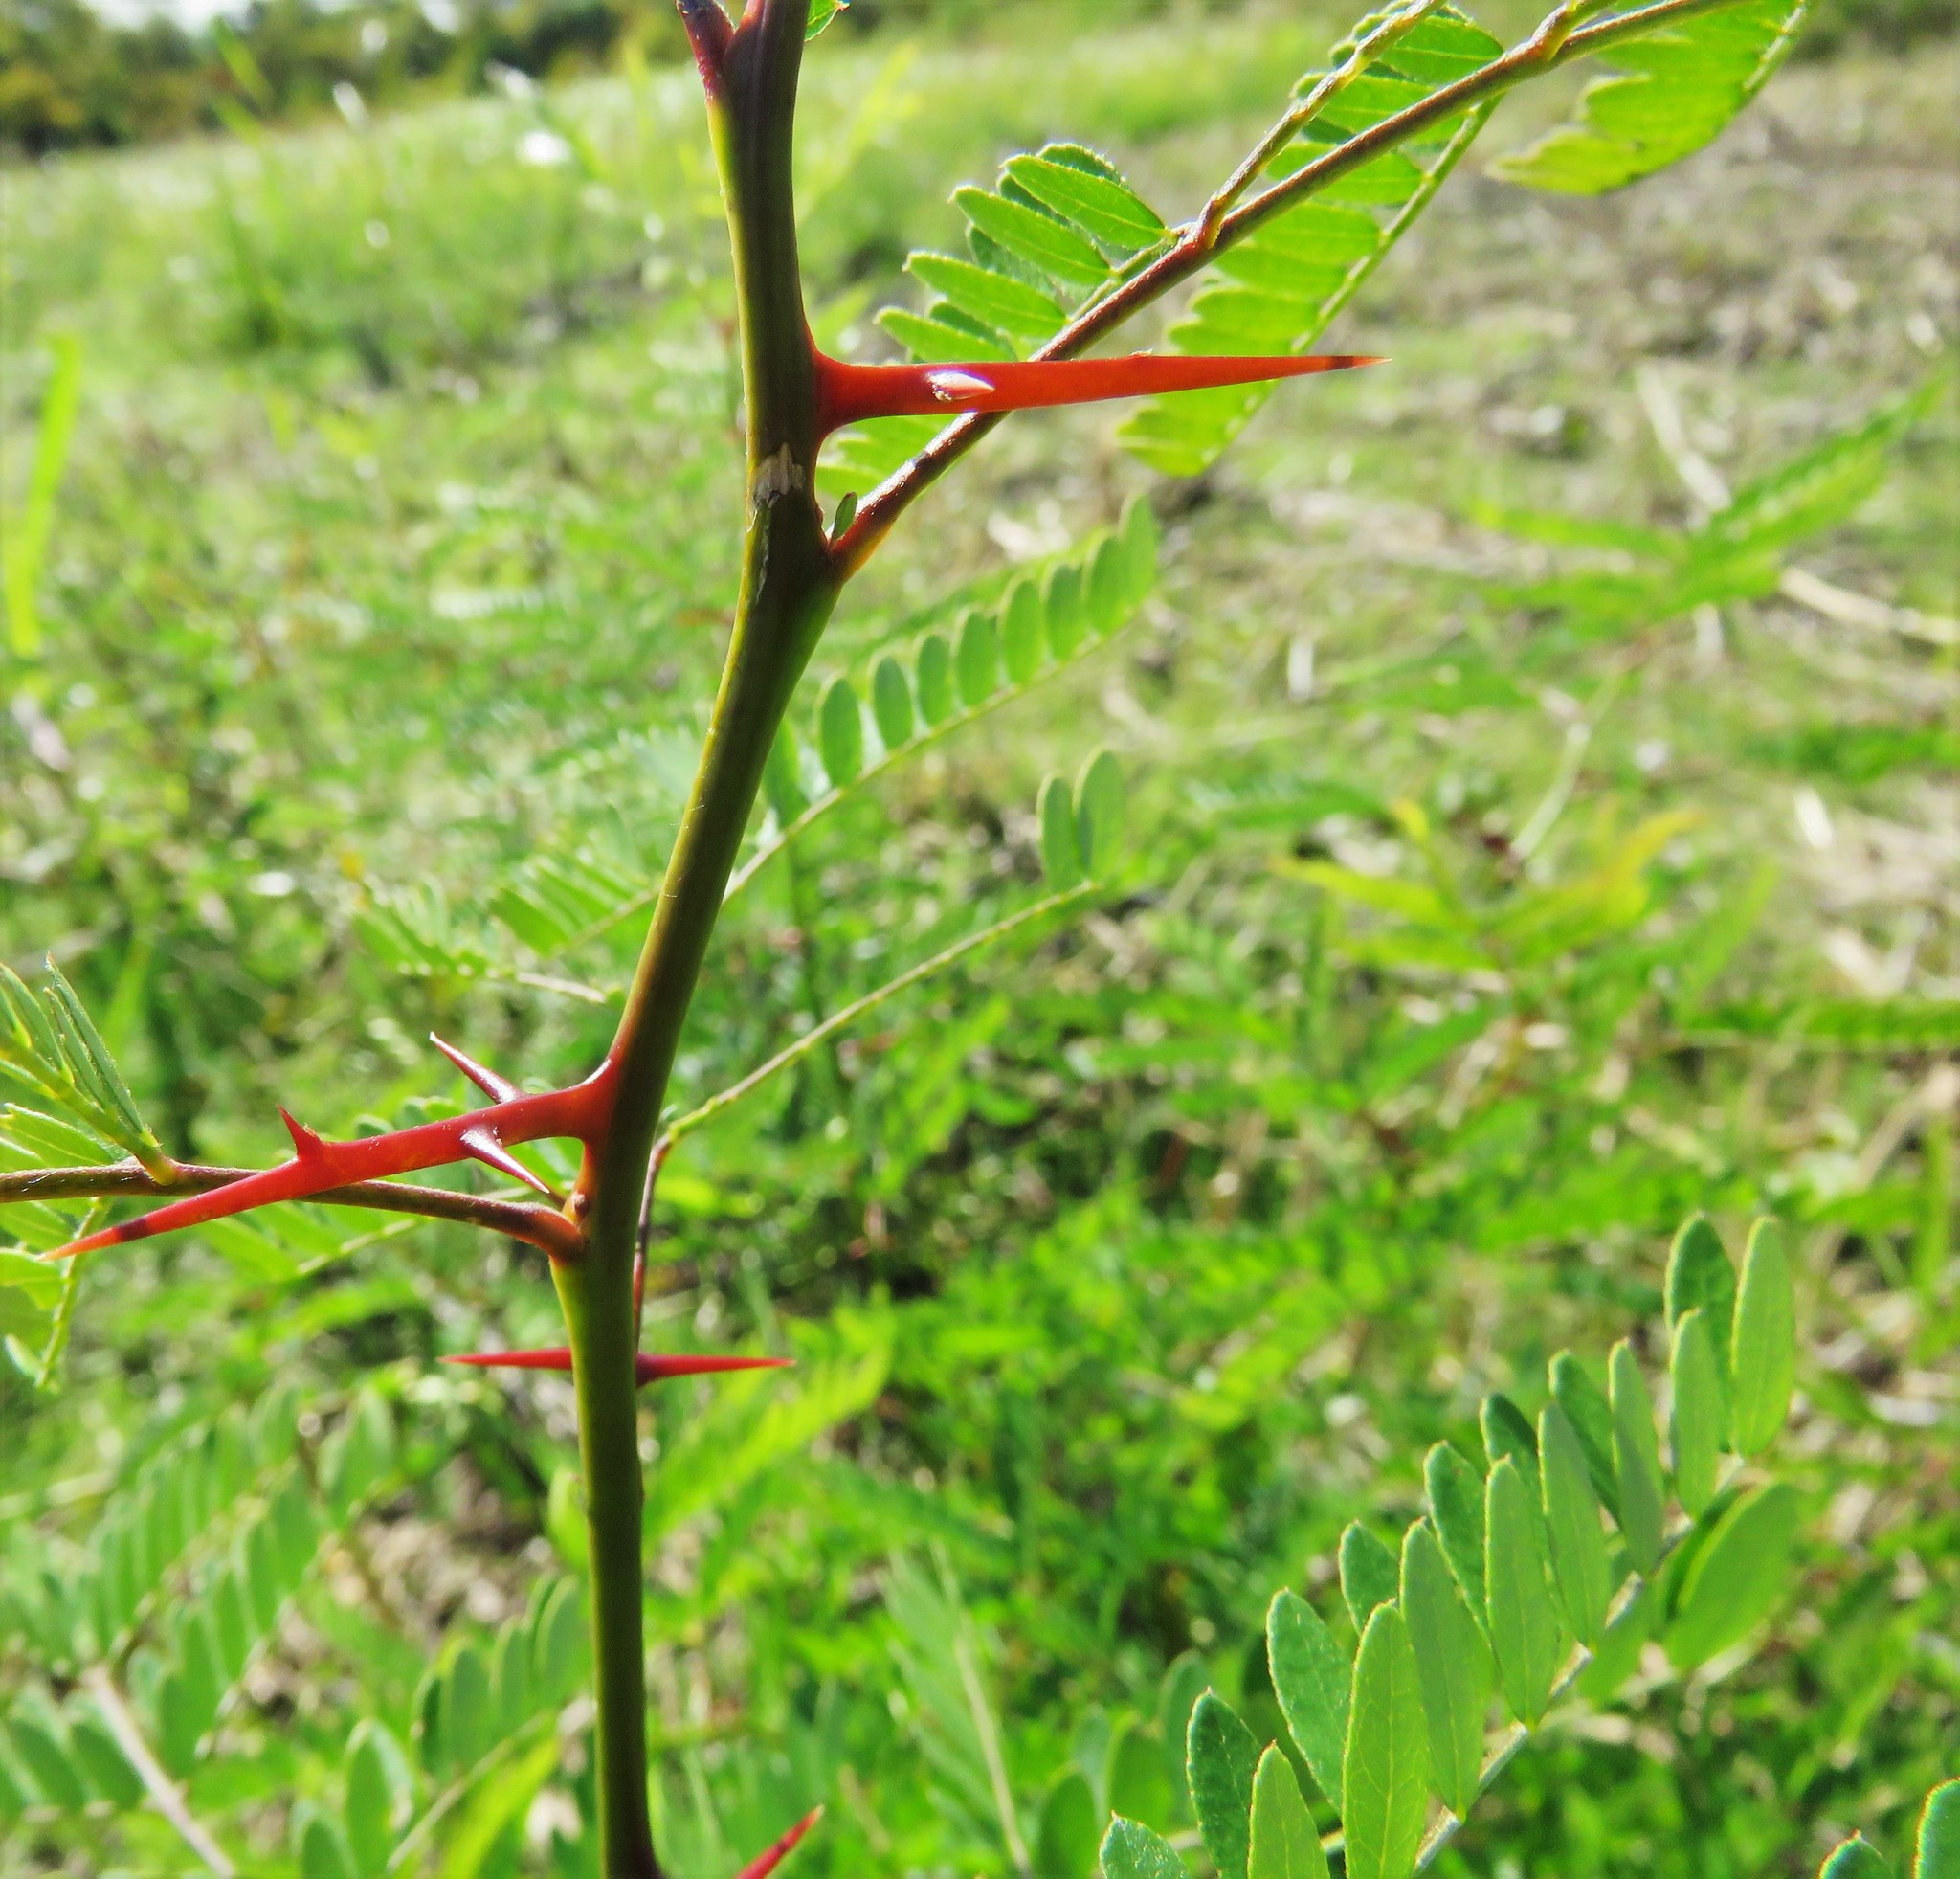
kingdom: Plantae
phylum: Tracheophyta
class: Magnoliopsida
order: Fabales
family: Fabaceae
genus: Gleditsia
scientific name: Gleditsia triacanthos
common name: Common honeylocust
